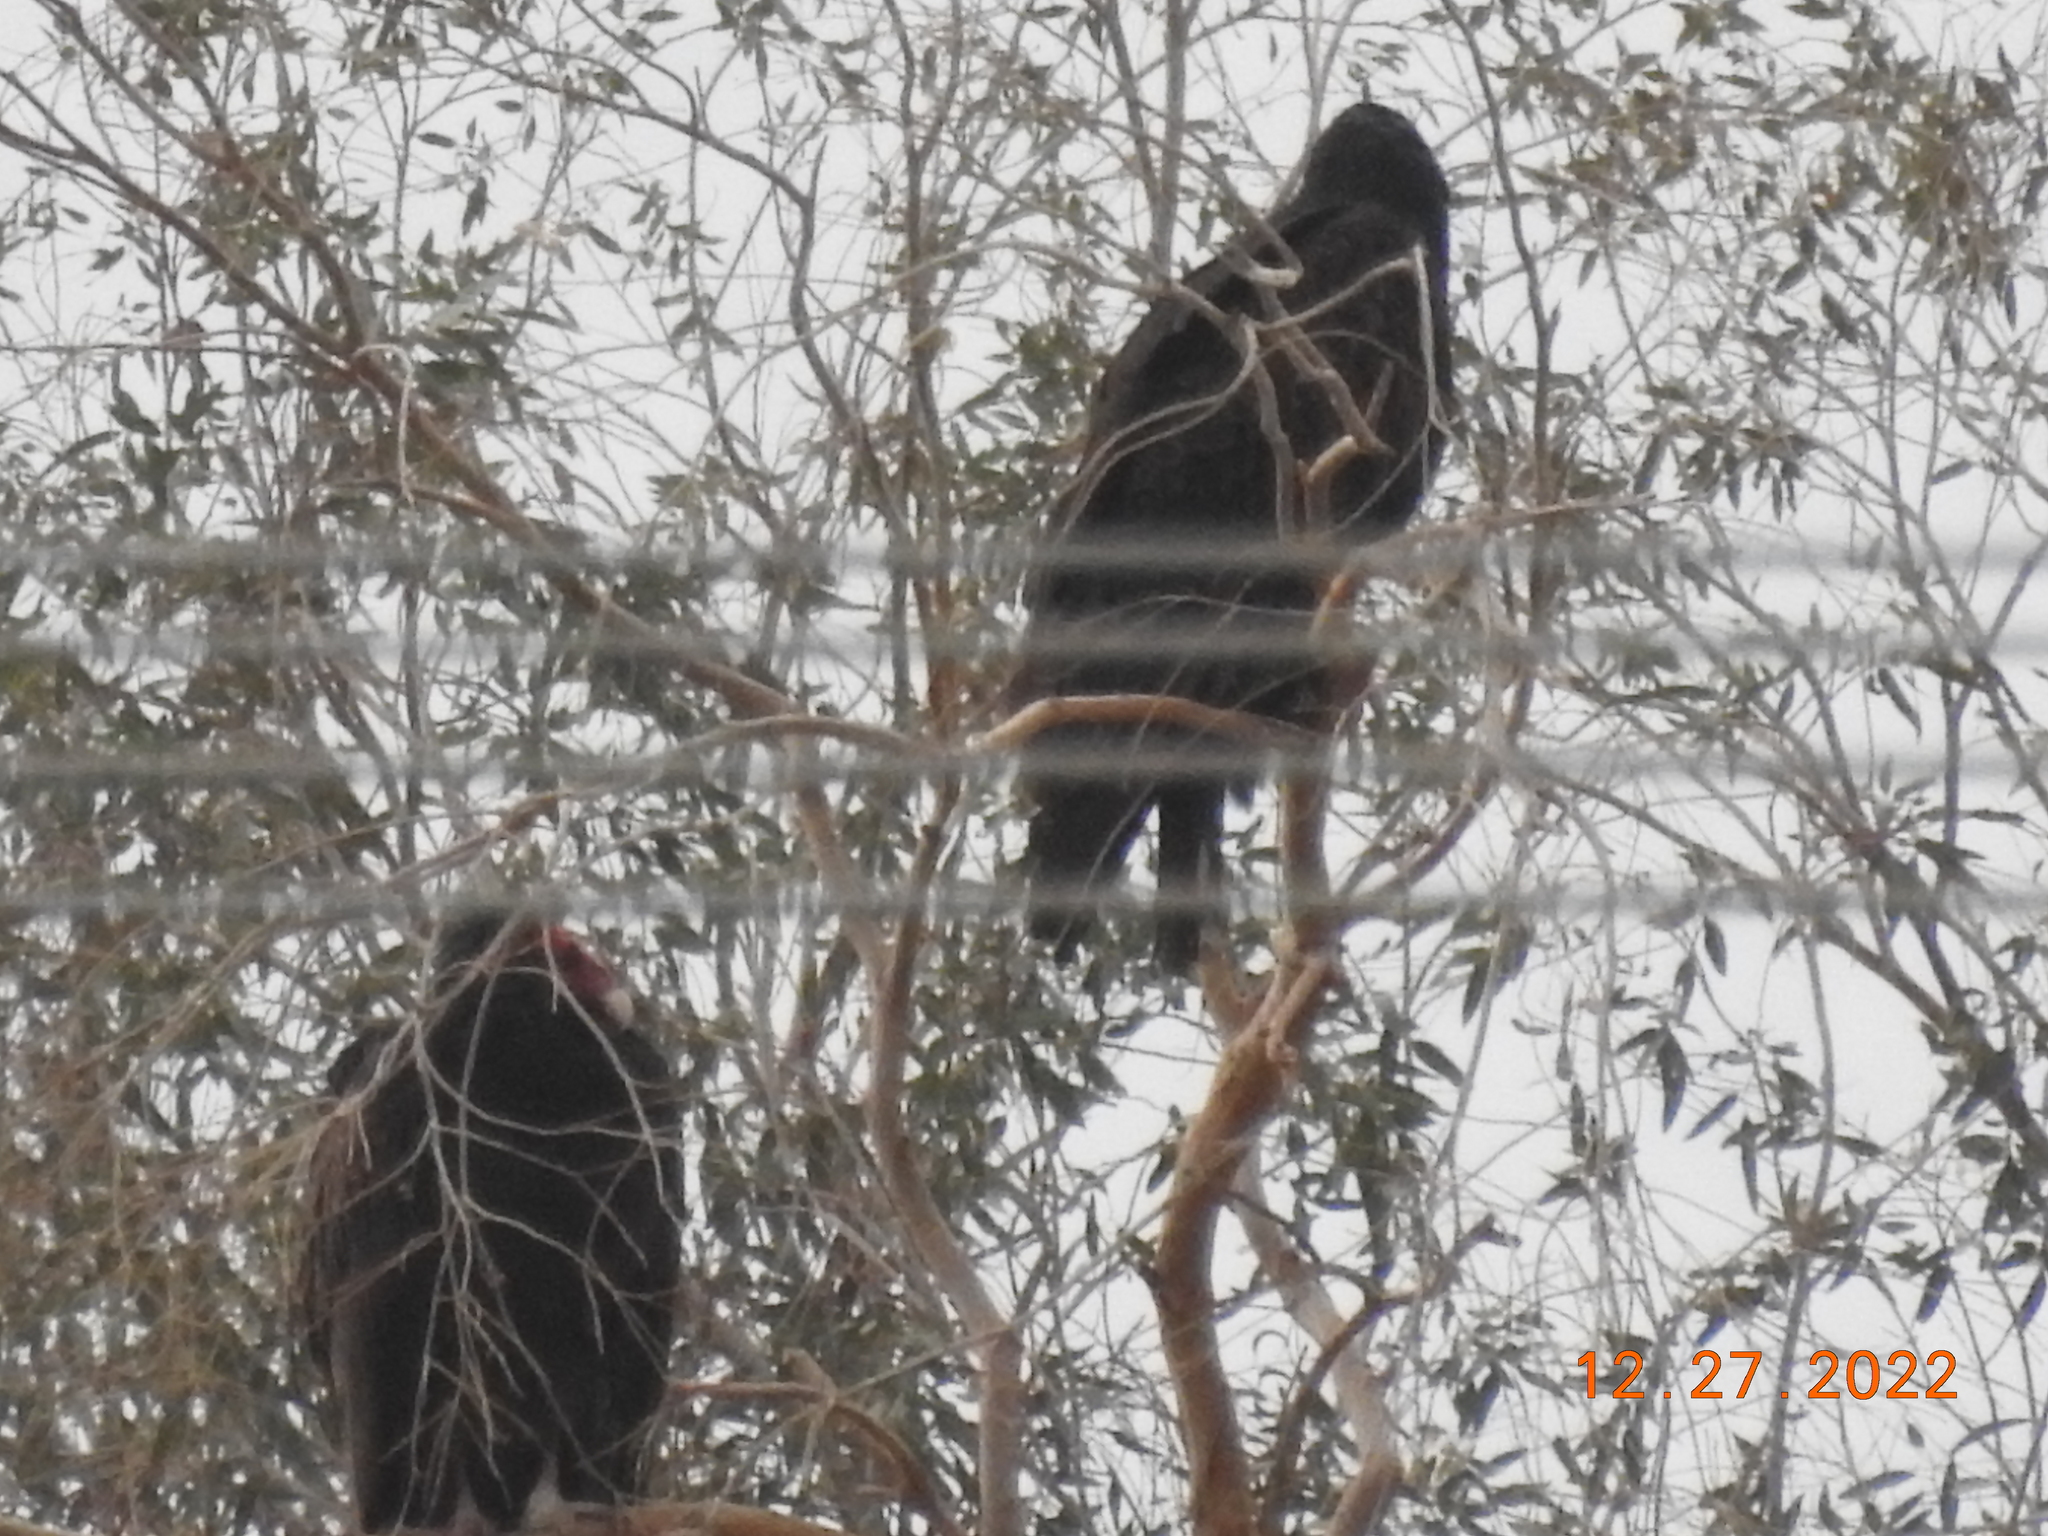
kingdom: Animalia
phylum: Chordata
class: Aves
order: Accipitriformes
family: Cathartidae
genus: Cathartes
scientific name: Cathartes aura
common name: Turkey vulture
